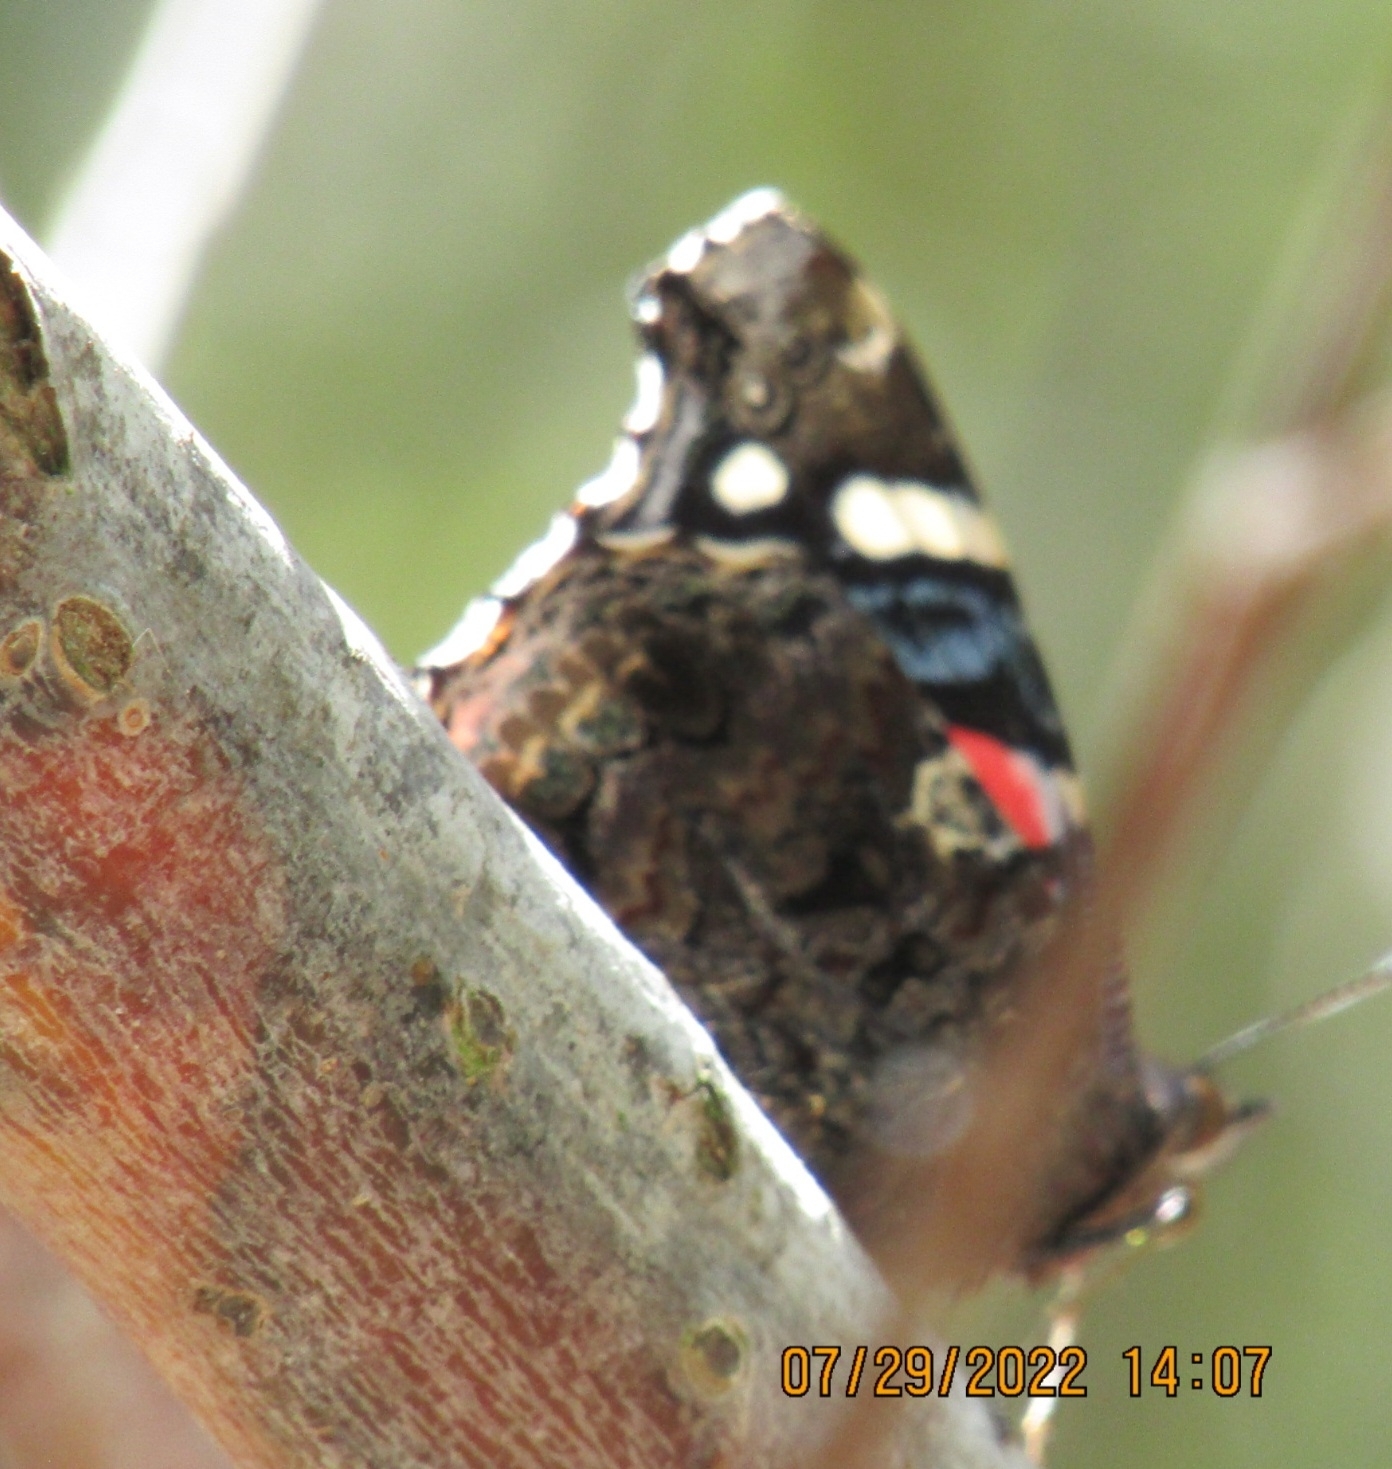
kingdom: Animalia
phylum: Arthropoda
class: Insecta
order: Lepidoptera
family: Nymphalidae
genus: Vanessa
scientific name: Vanessa atalanta
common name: Red admiral
